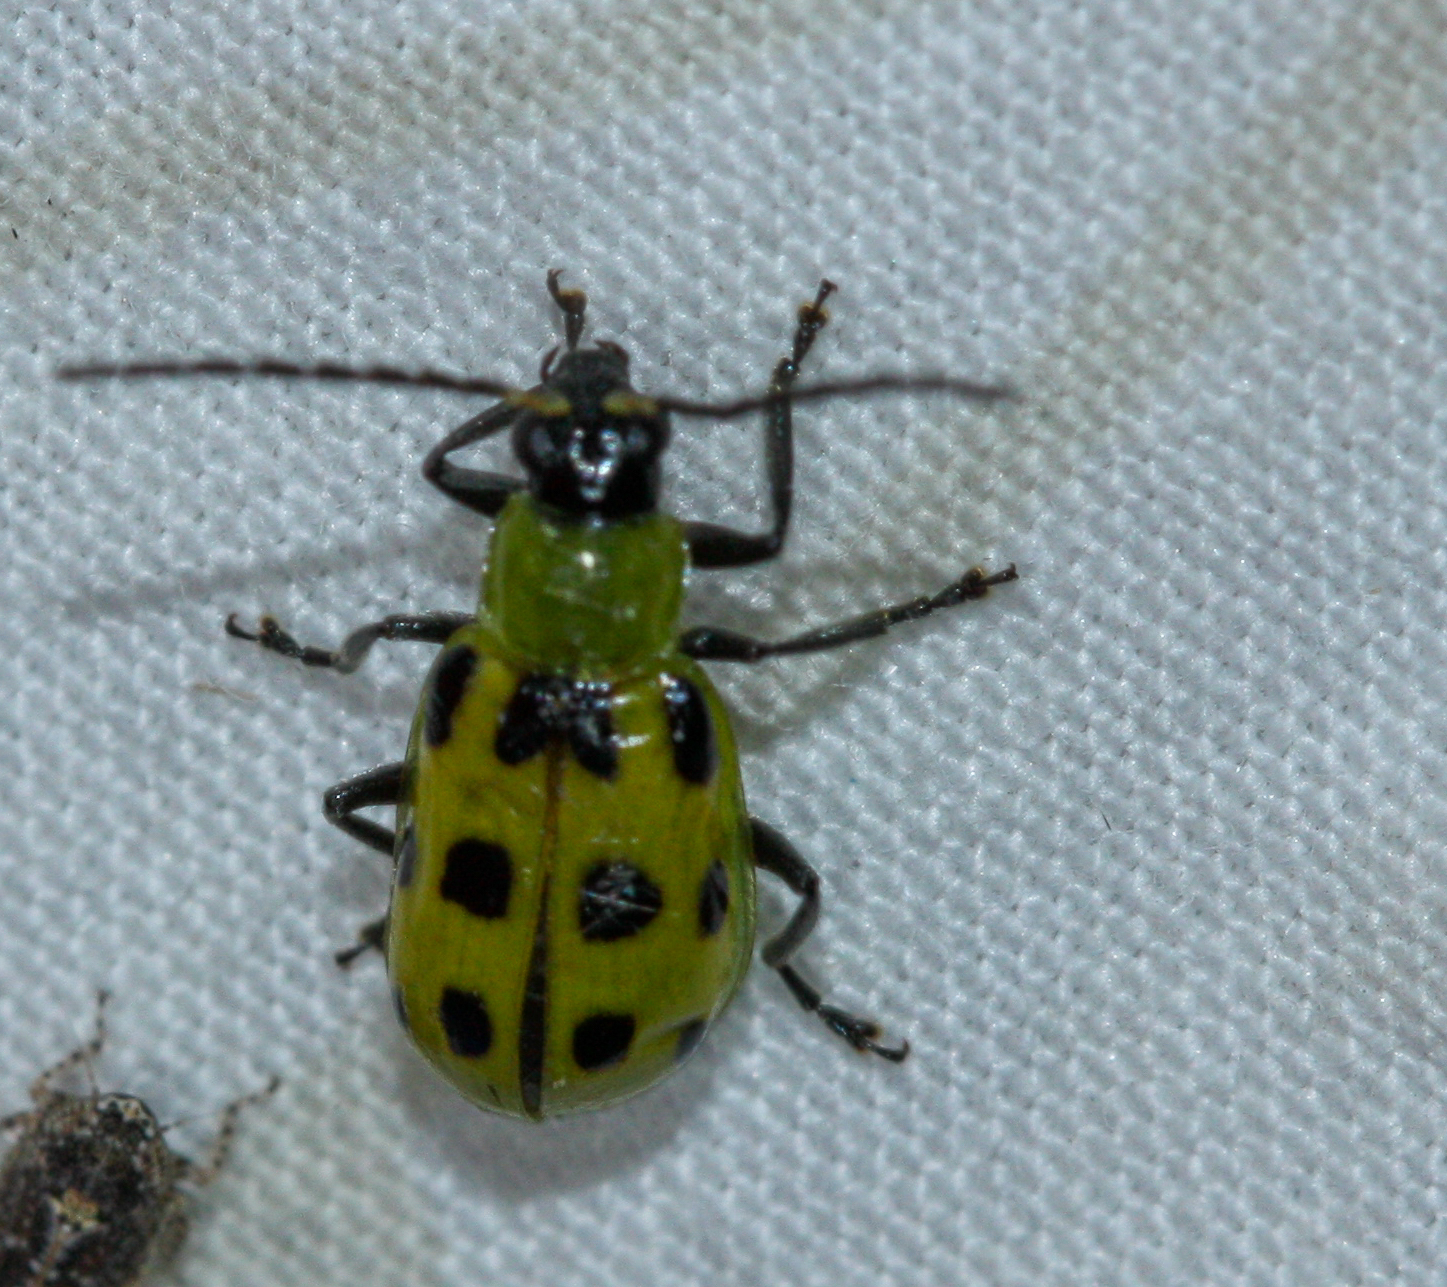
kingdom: Animalia
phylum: Arthropoda
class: Insecta
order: Coleoptera
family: Chrysomelidae
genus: Diabrotica
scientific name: Diabrotica undecimpunctata
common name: Spotted cucumber beetle
